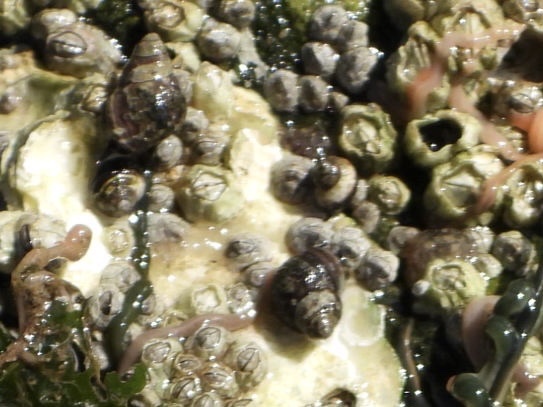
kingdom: Animalia
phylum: Mollusca
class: Gastropoda
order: Littorinimorpha
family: Littorinidae
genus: Littorina
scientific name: Littorina scutulata
